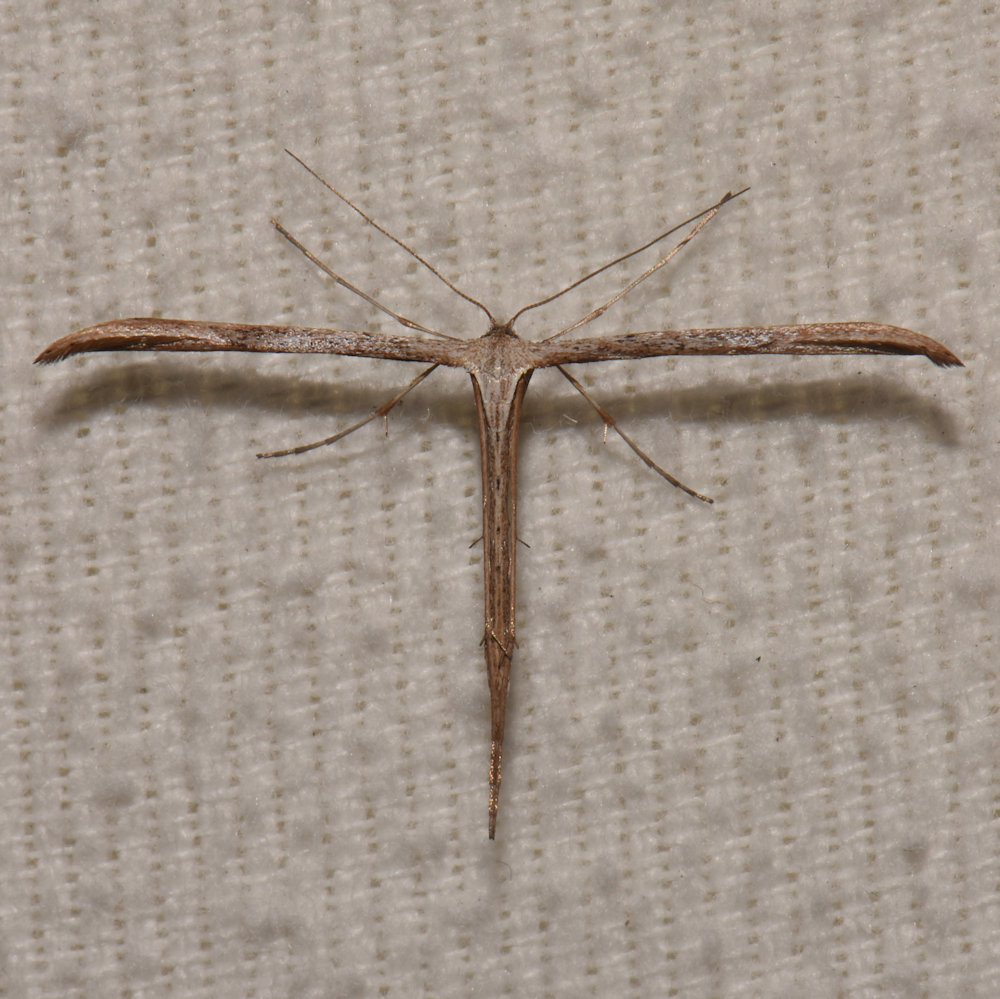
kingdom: Animalia
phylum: Arthropoda
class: Insecta
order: Lepidoptera
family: Pterophoridae
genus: Emmelina
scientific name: Emmelina monodactyla
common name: Common plume
